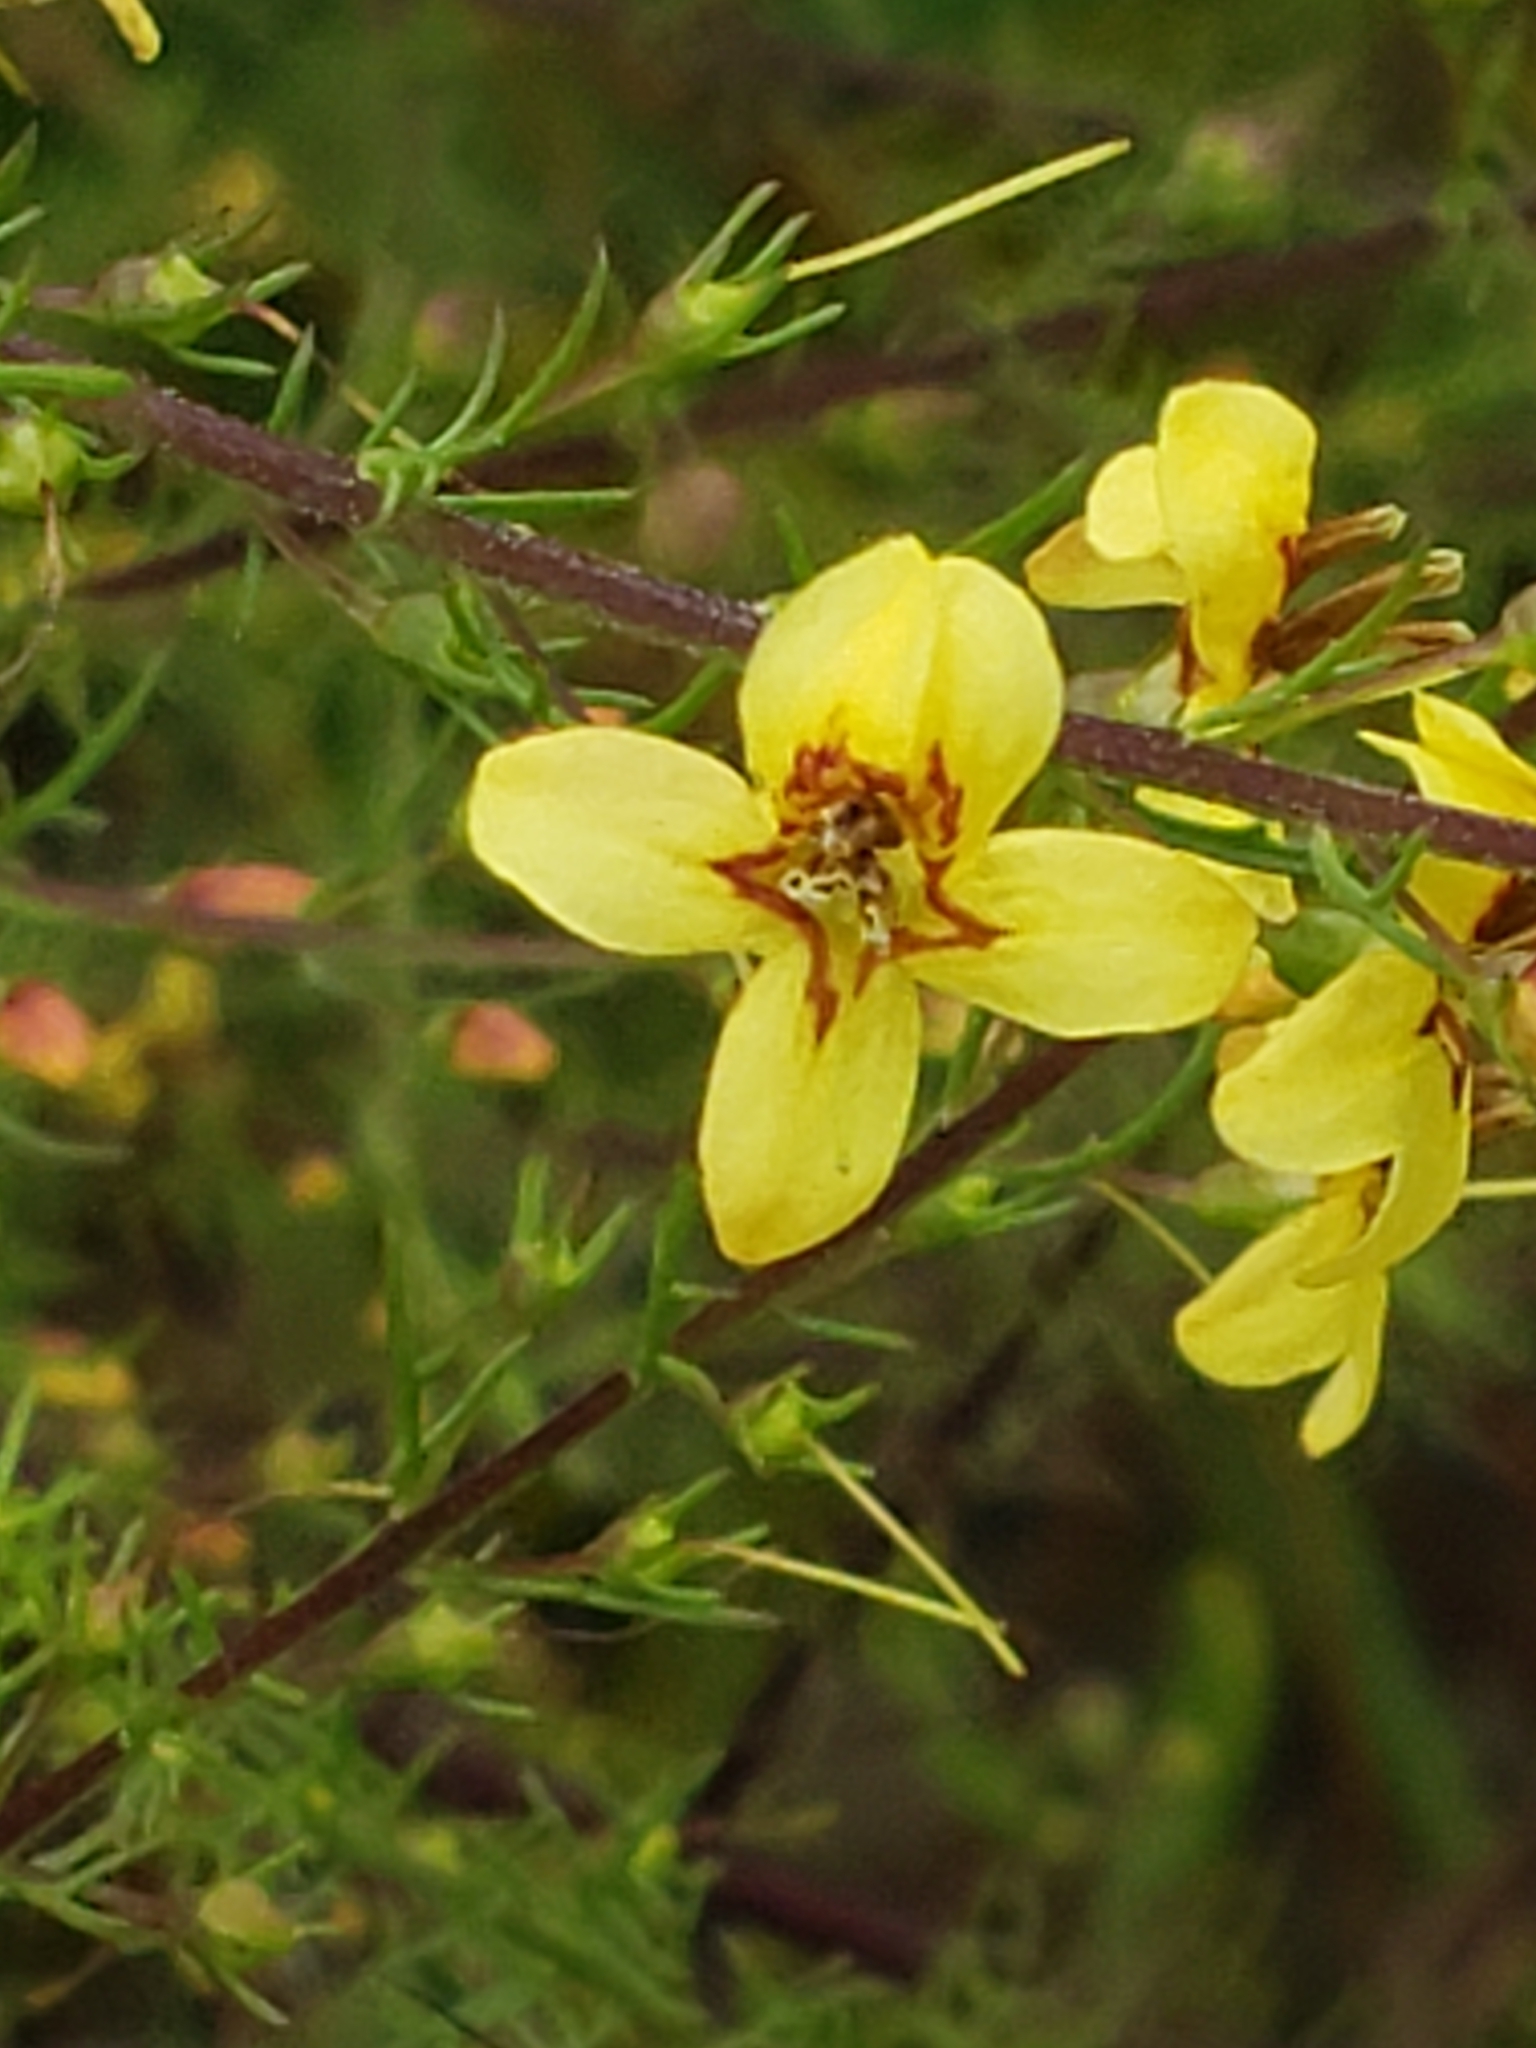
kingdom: Plantae
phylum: Tracheophyta
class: Magnoliopsida
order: Lamiales
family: Orobanchaceae
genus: Seymeria
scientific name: Seymeria cassioides
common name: Yaupon black-senna
